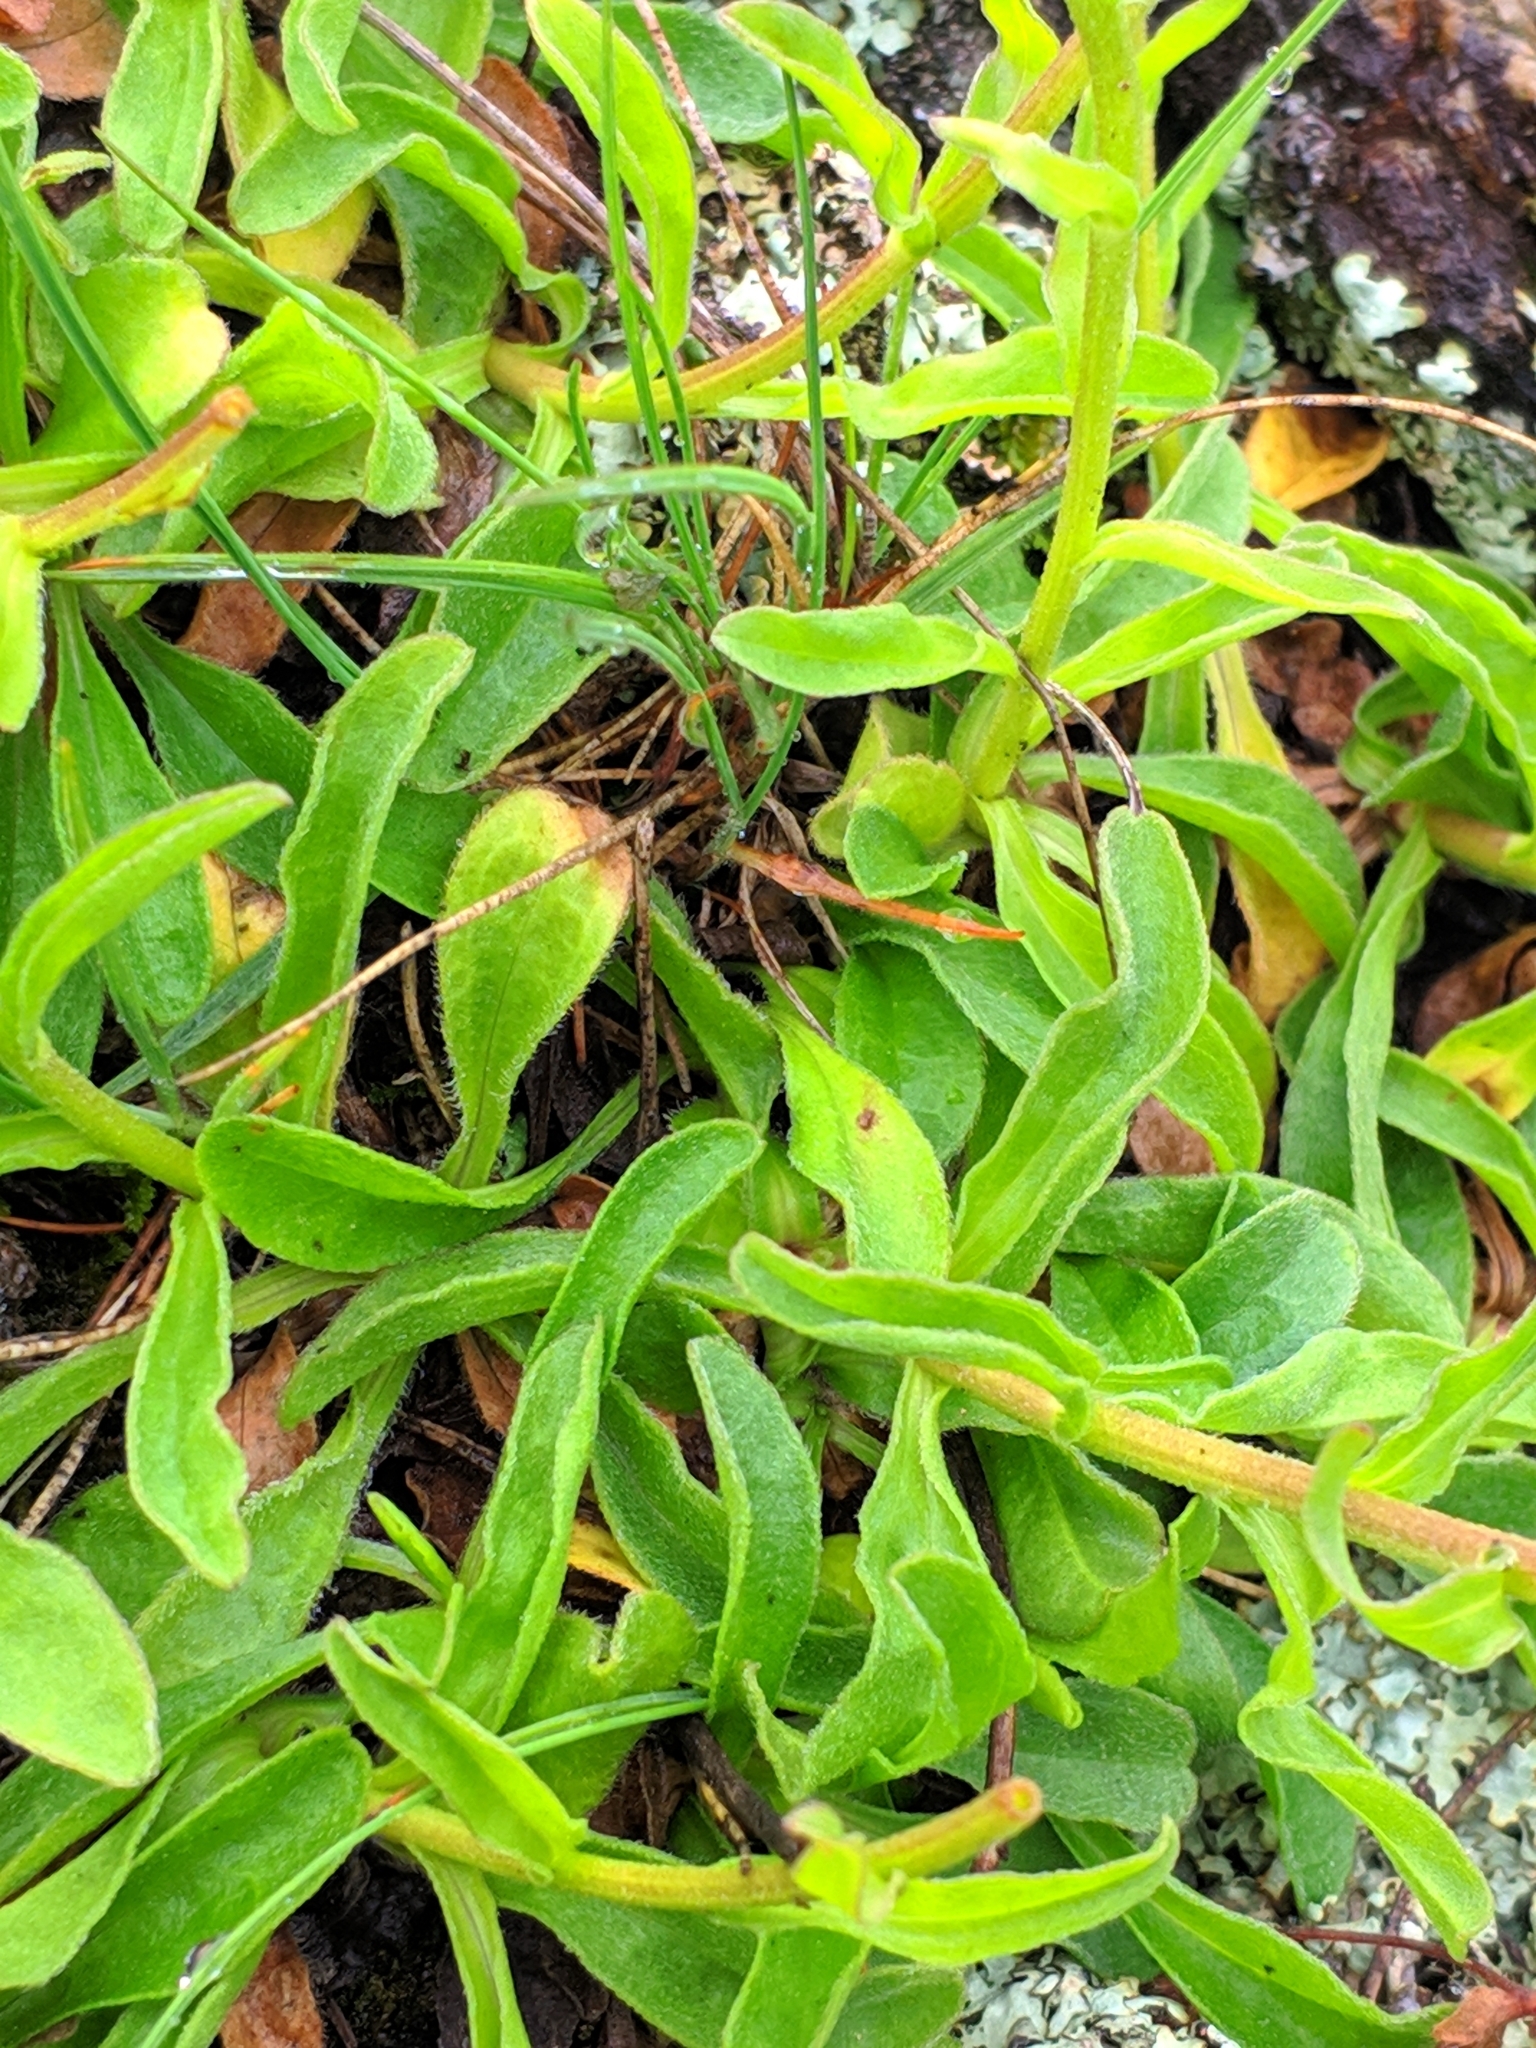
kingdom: Plantae
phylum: Tracheophyta
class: Magnoliopsida
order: Asterales
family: Asteraceae
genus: Aster
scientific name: Aster alpinus
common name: Alpine aster
